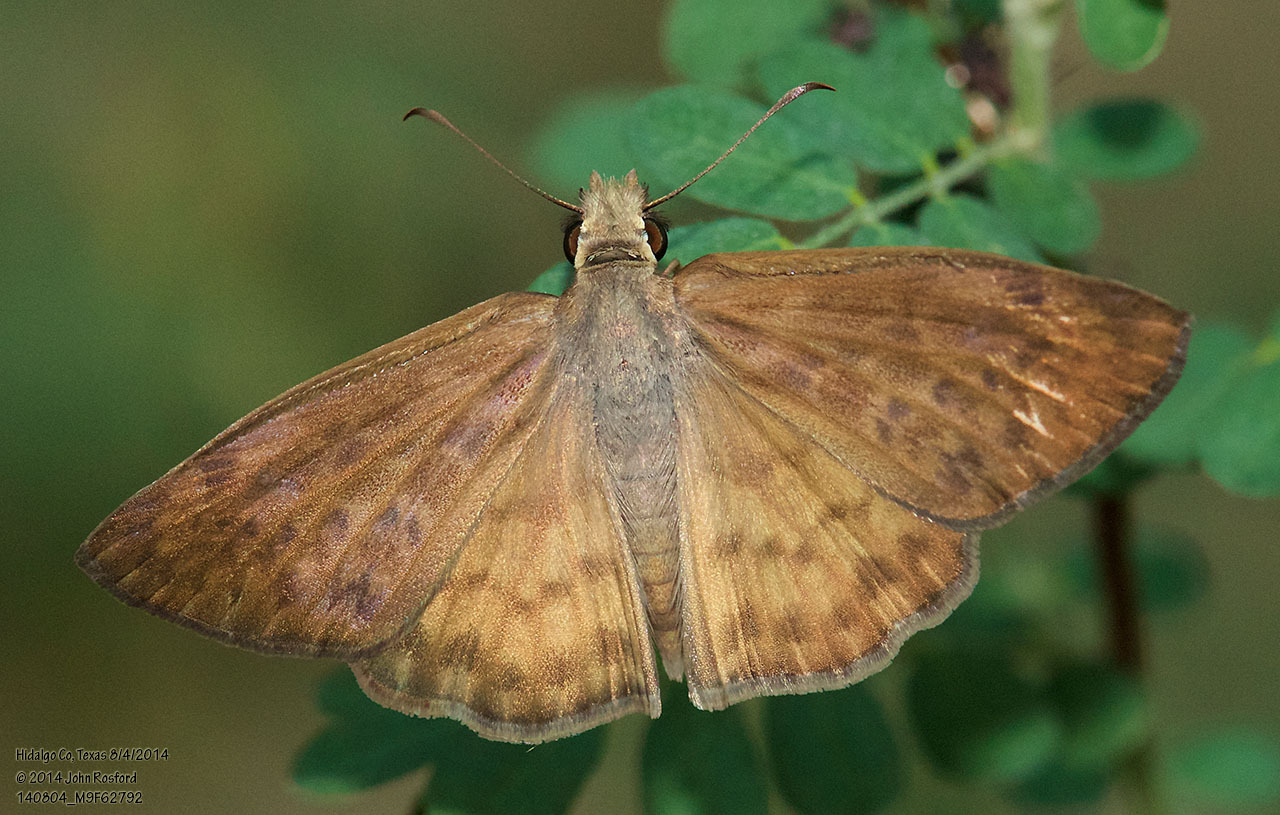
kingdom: Animalia
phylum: Arthropoda
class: Insecta
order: Lepidoptera
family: Hesperiidae
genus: Timochares
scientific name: Timochares ruptifasciata
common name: Brown-banded skipper
